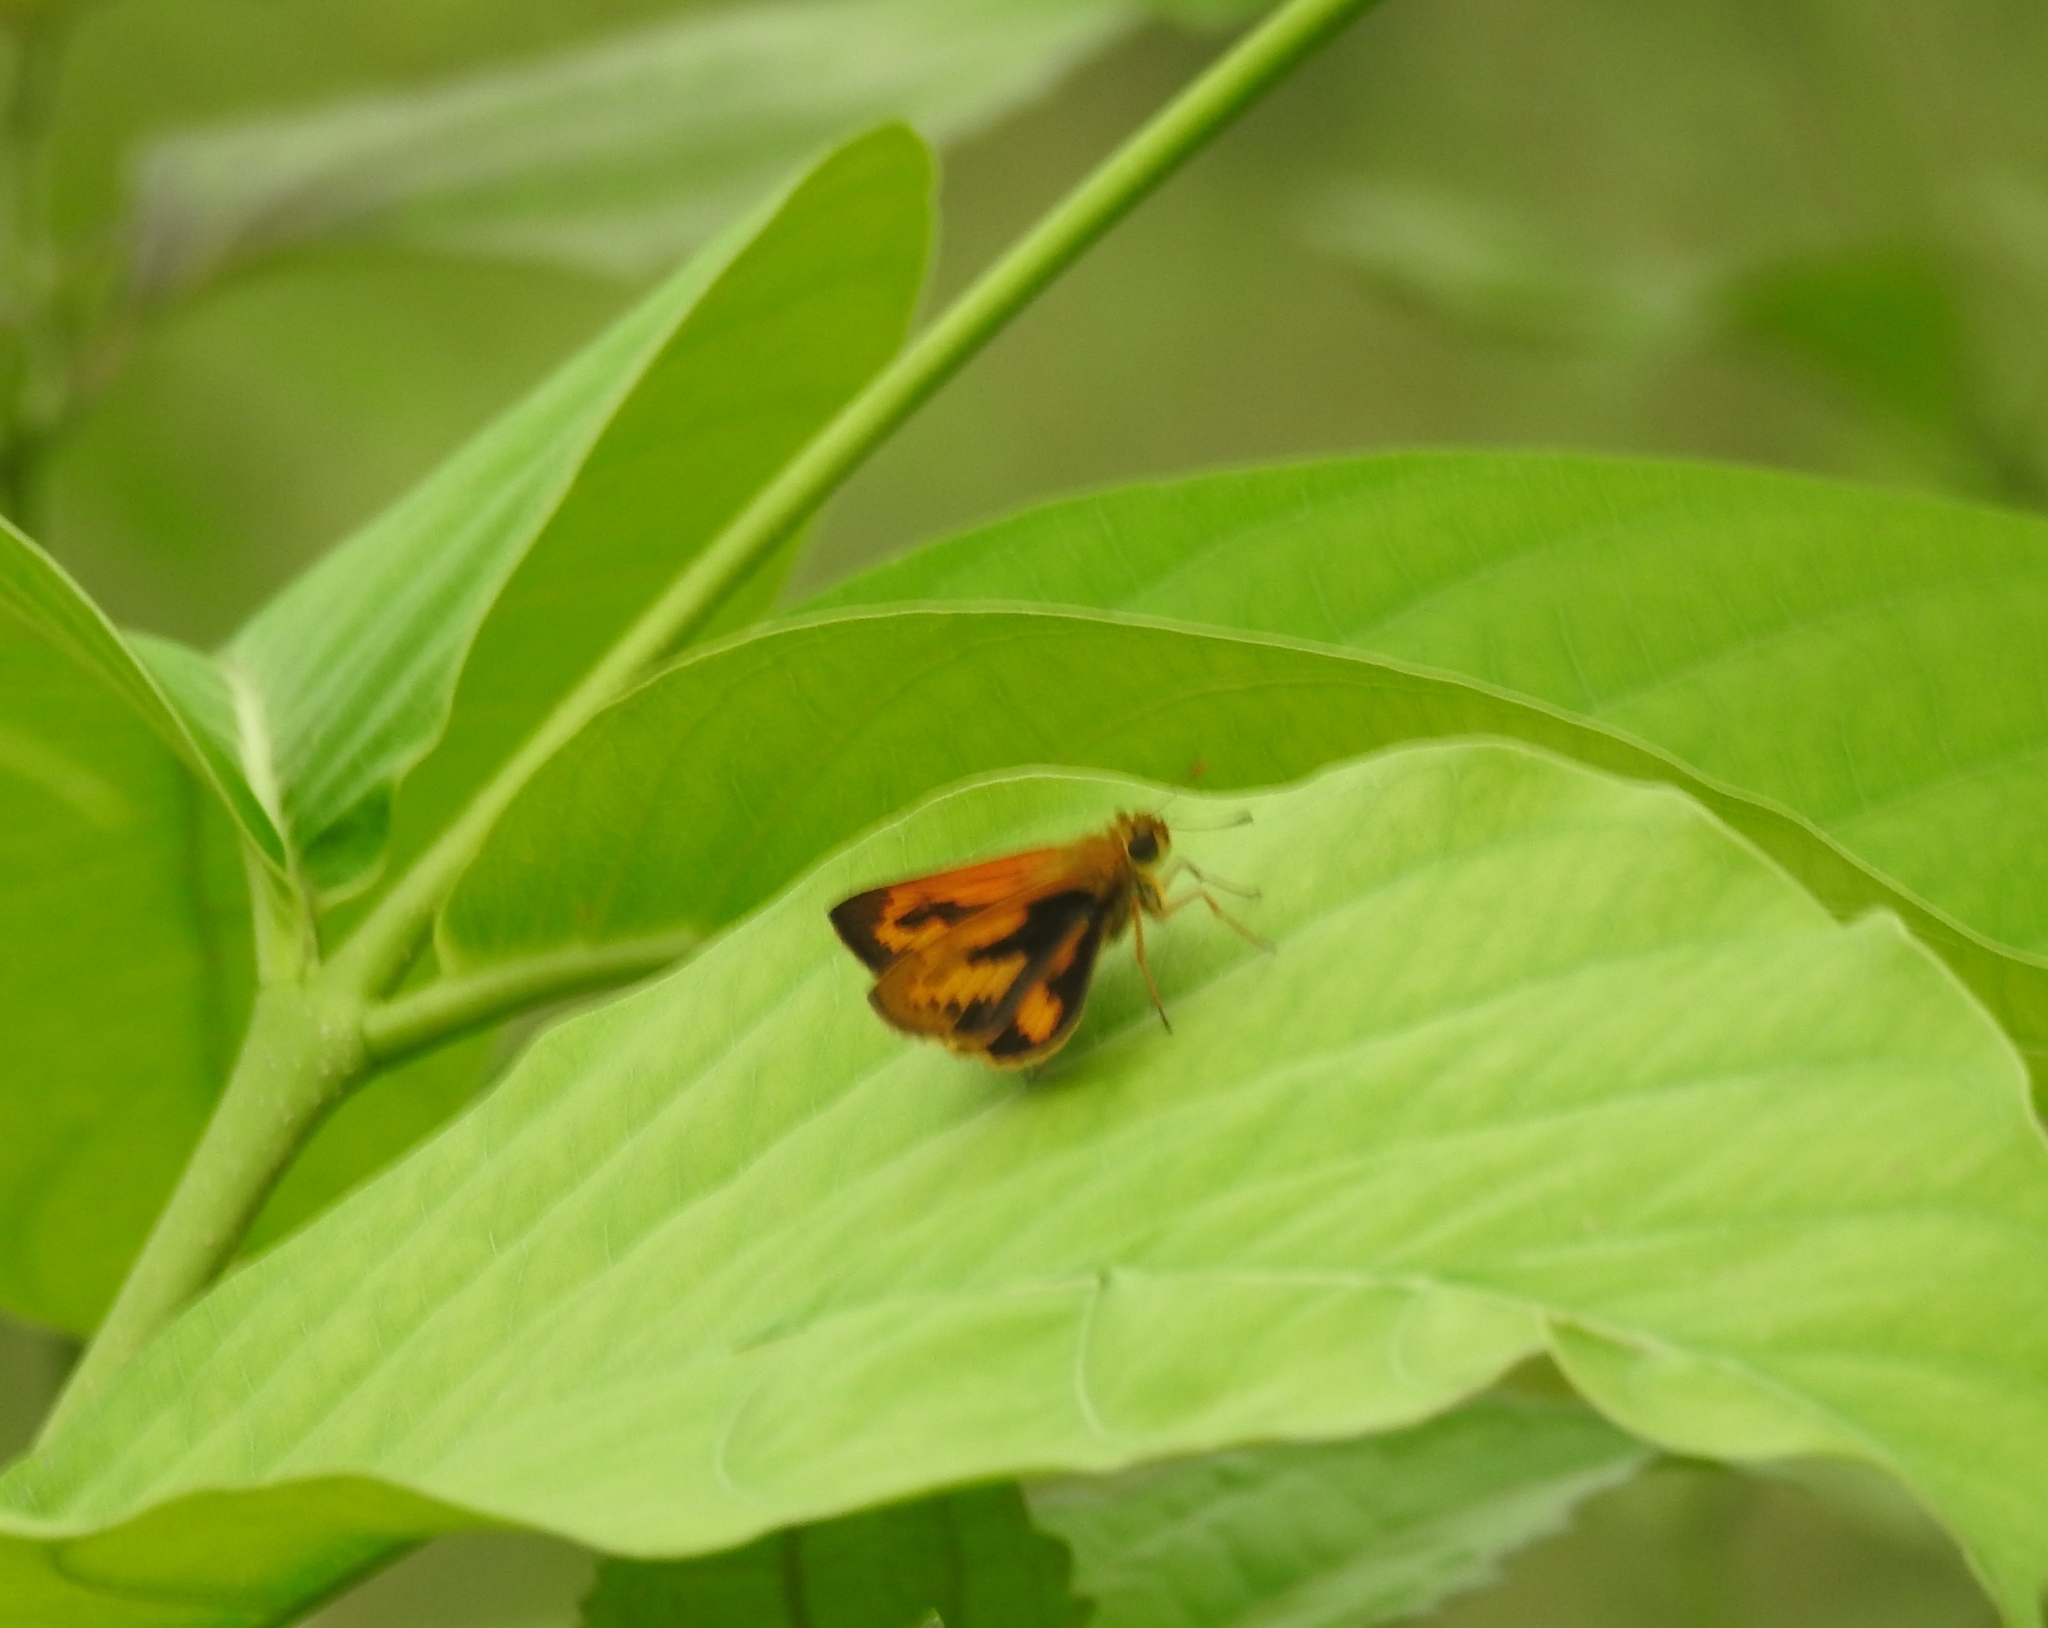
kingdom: Animalia
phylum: Arthropoda
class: Insecta
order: Lepidoptera
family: Hesperiidae
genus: Telicota
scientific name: Telicota bambusae
